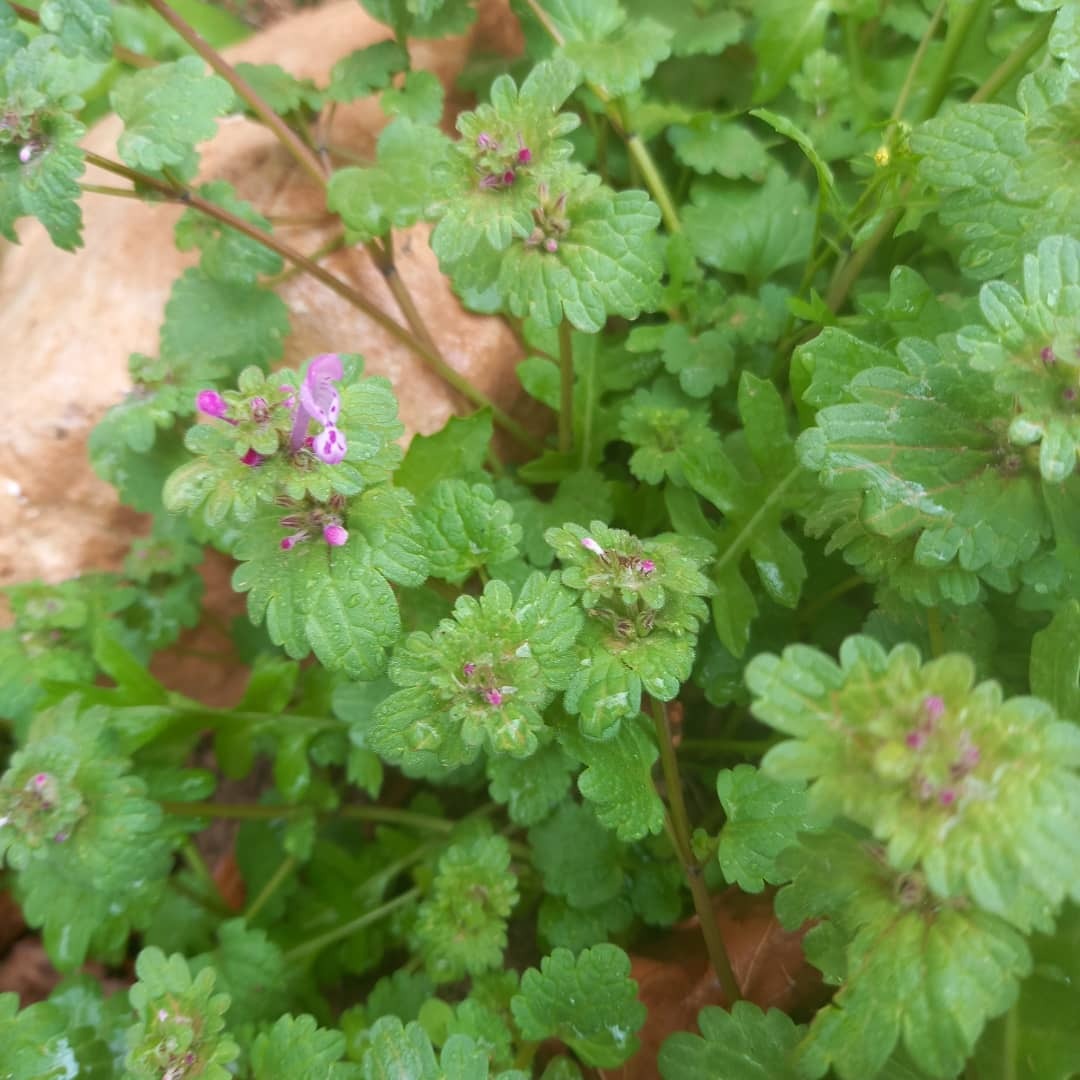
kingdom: Plantae
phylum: Tracheophyta
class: Magnoliopsida
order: Lamiales
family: Lamiaceae
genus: Lamium
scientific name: Lamium amplexicaule
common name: Henbit dead-nettle
